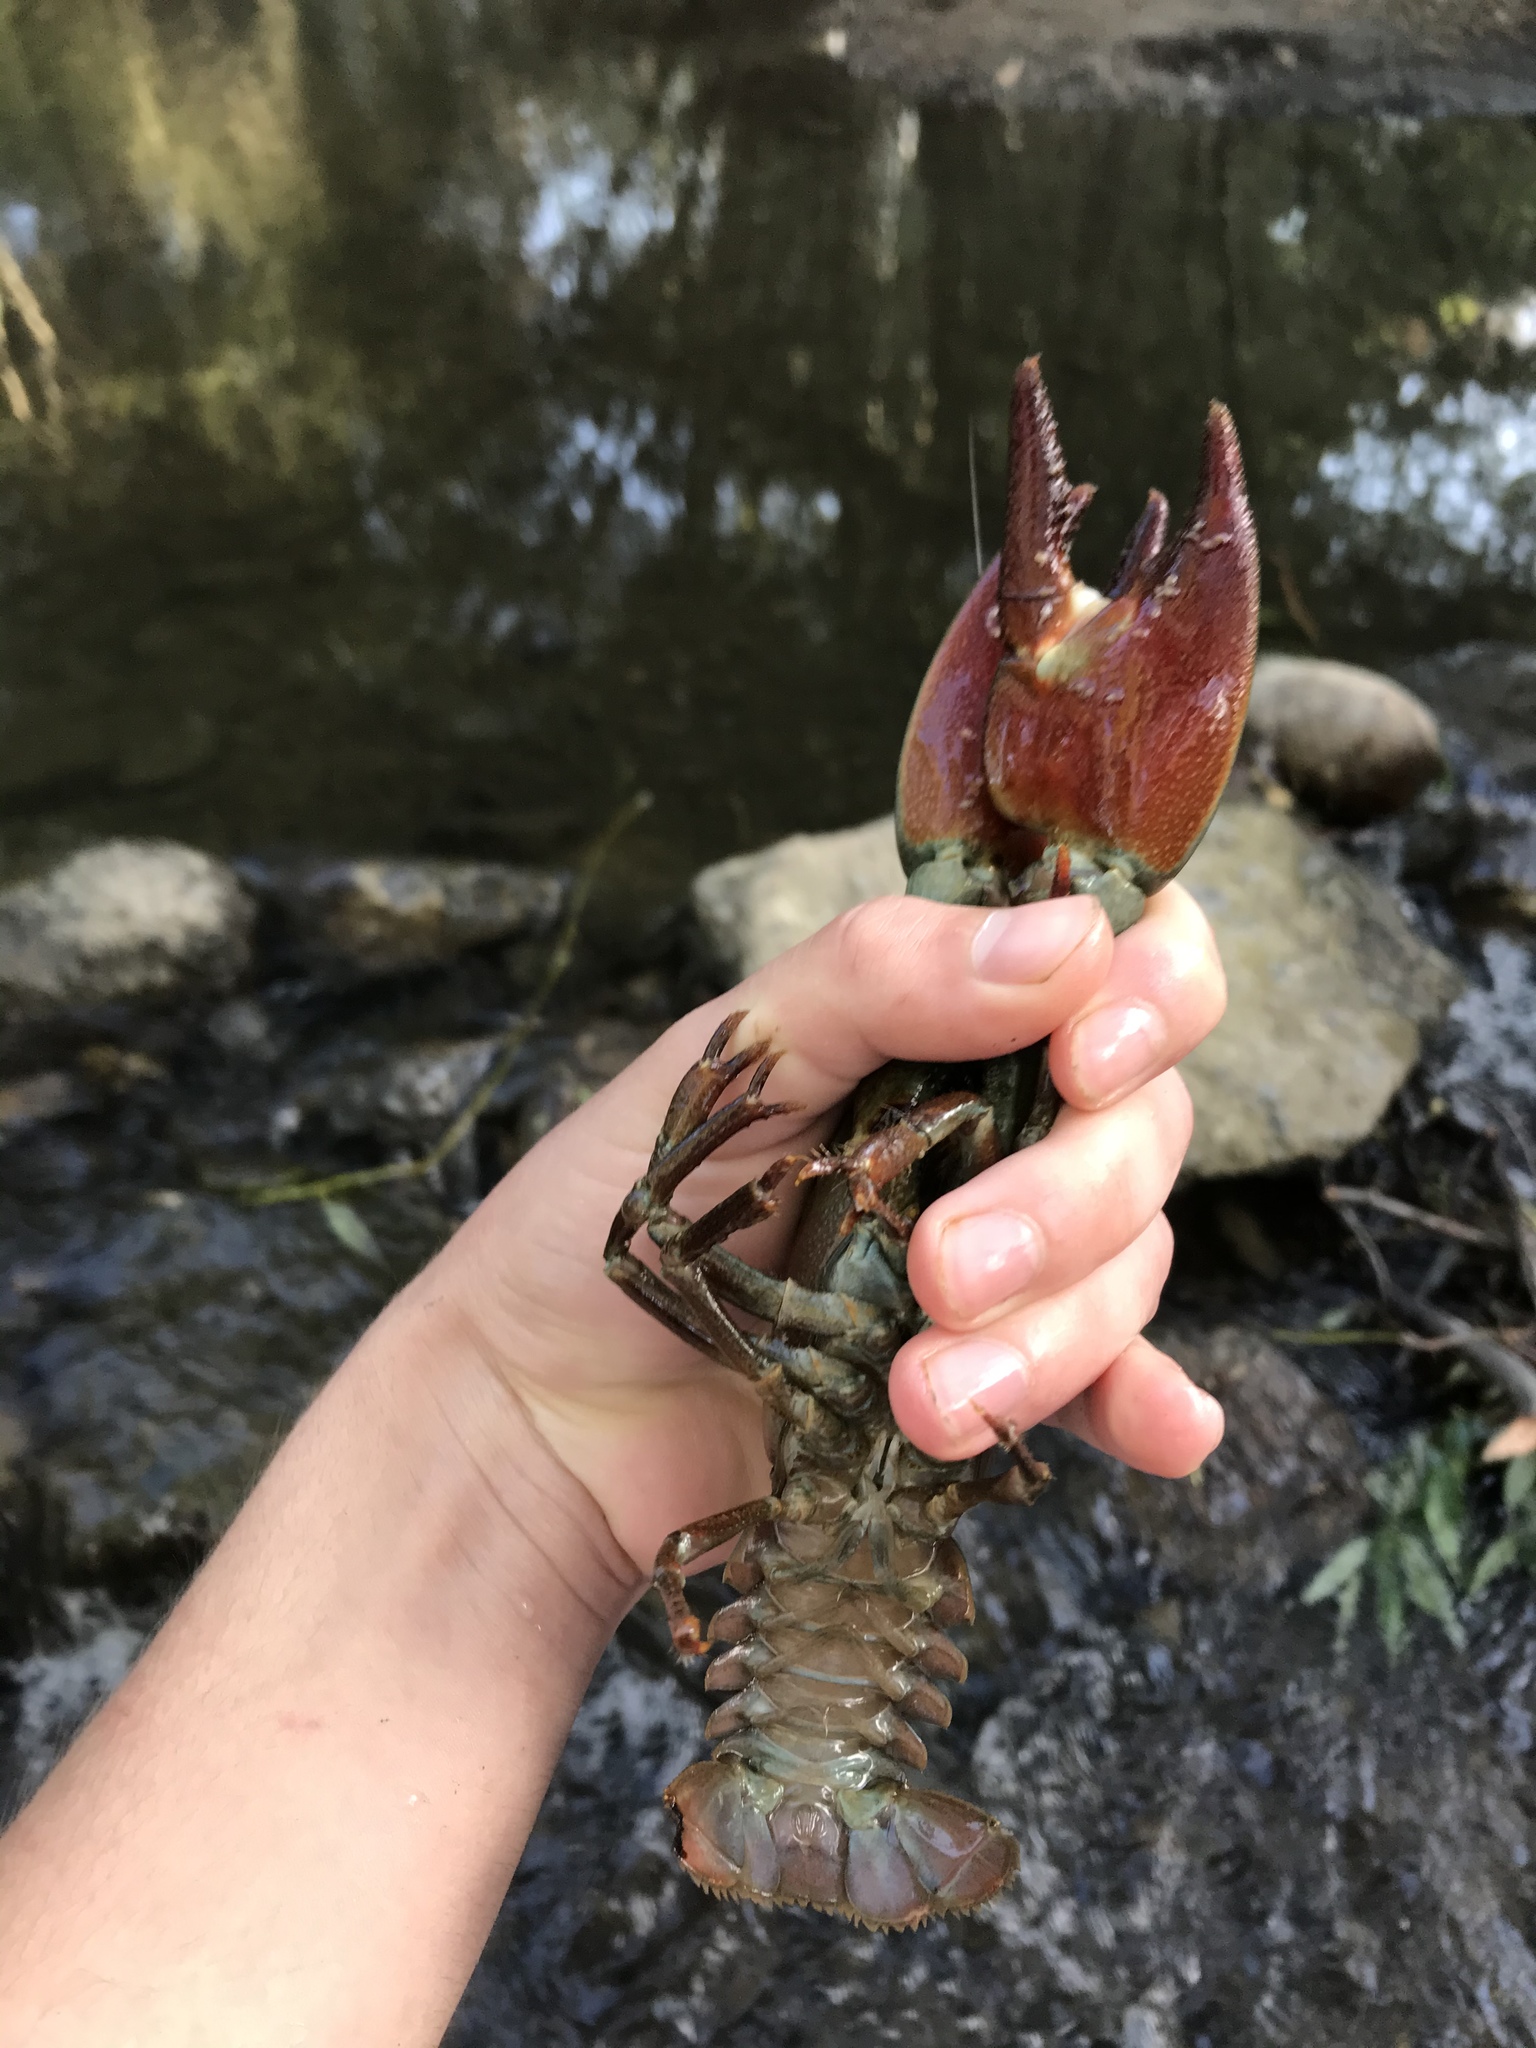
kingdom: Animalia
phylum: Arthropoda
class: Malacostraca
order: Decapoda
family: Astacidae
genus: Pacifastacus
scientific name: Pacifastacus leniusculus
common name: Signal crayfish
